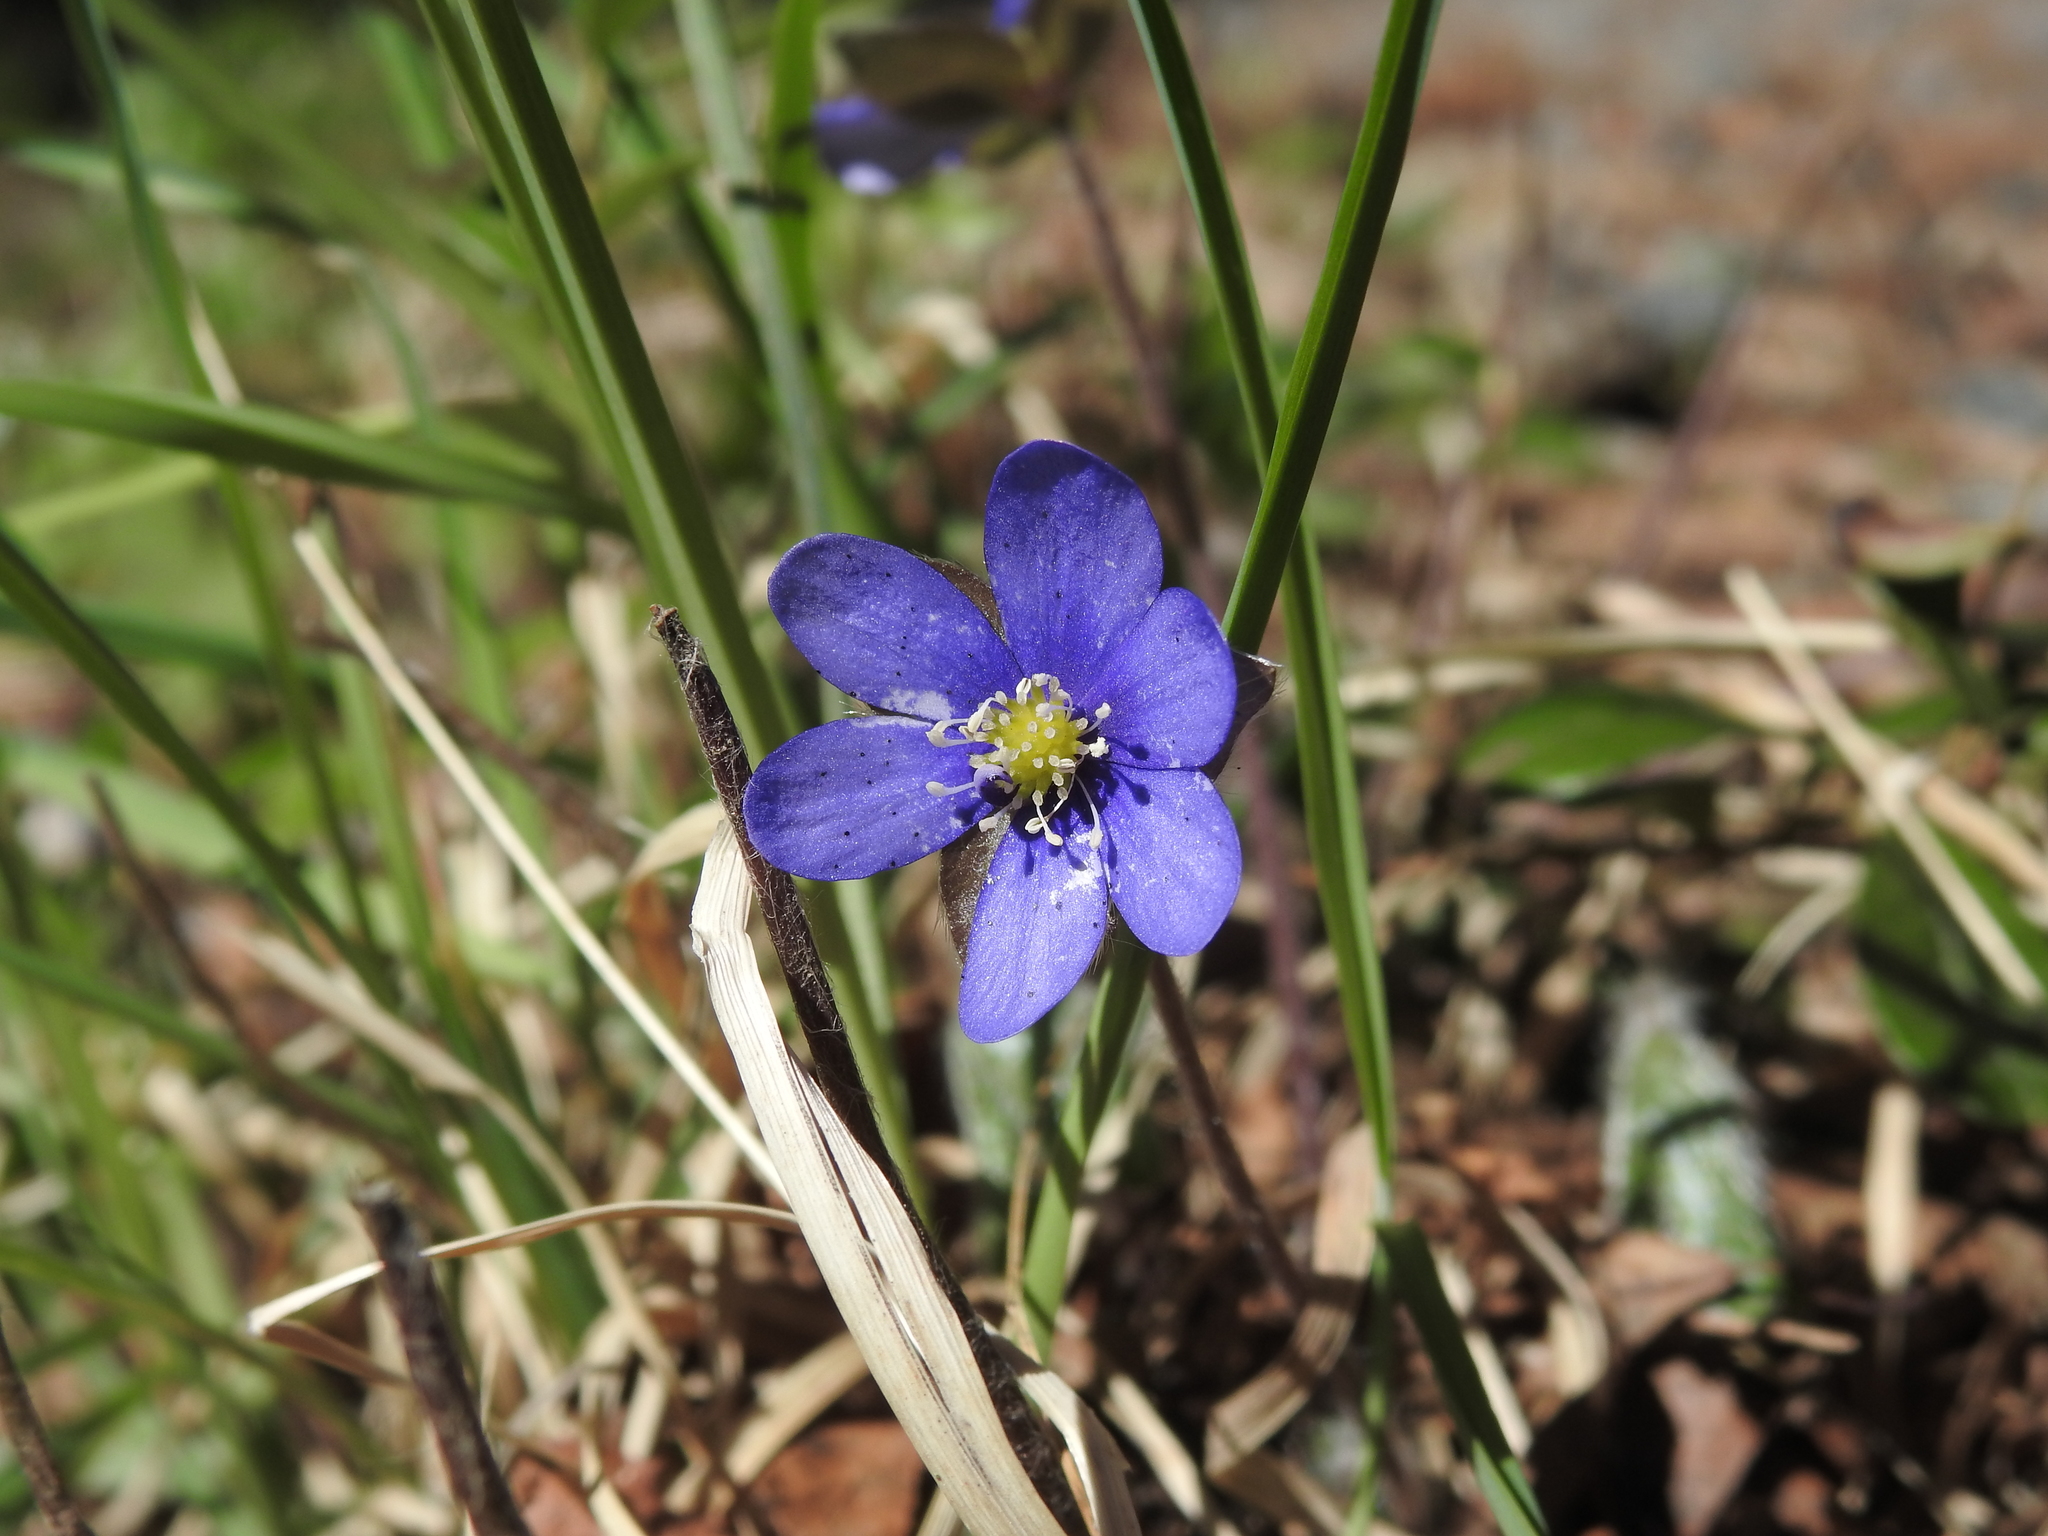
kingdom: Plantae
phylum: Tracheophyta
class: Magnoliopsida
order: Ranunculales
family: Ranunculaceae
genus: Hepatica
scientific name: Hepatica nobilis
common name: Liverleaf
